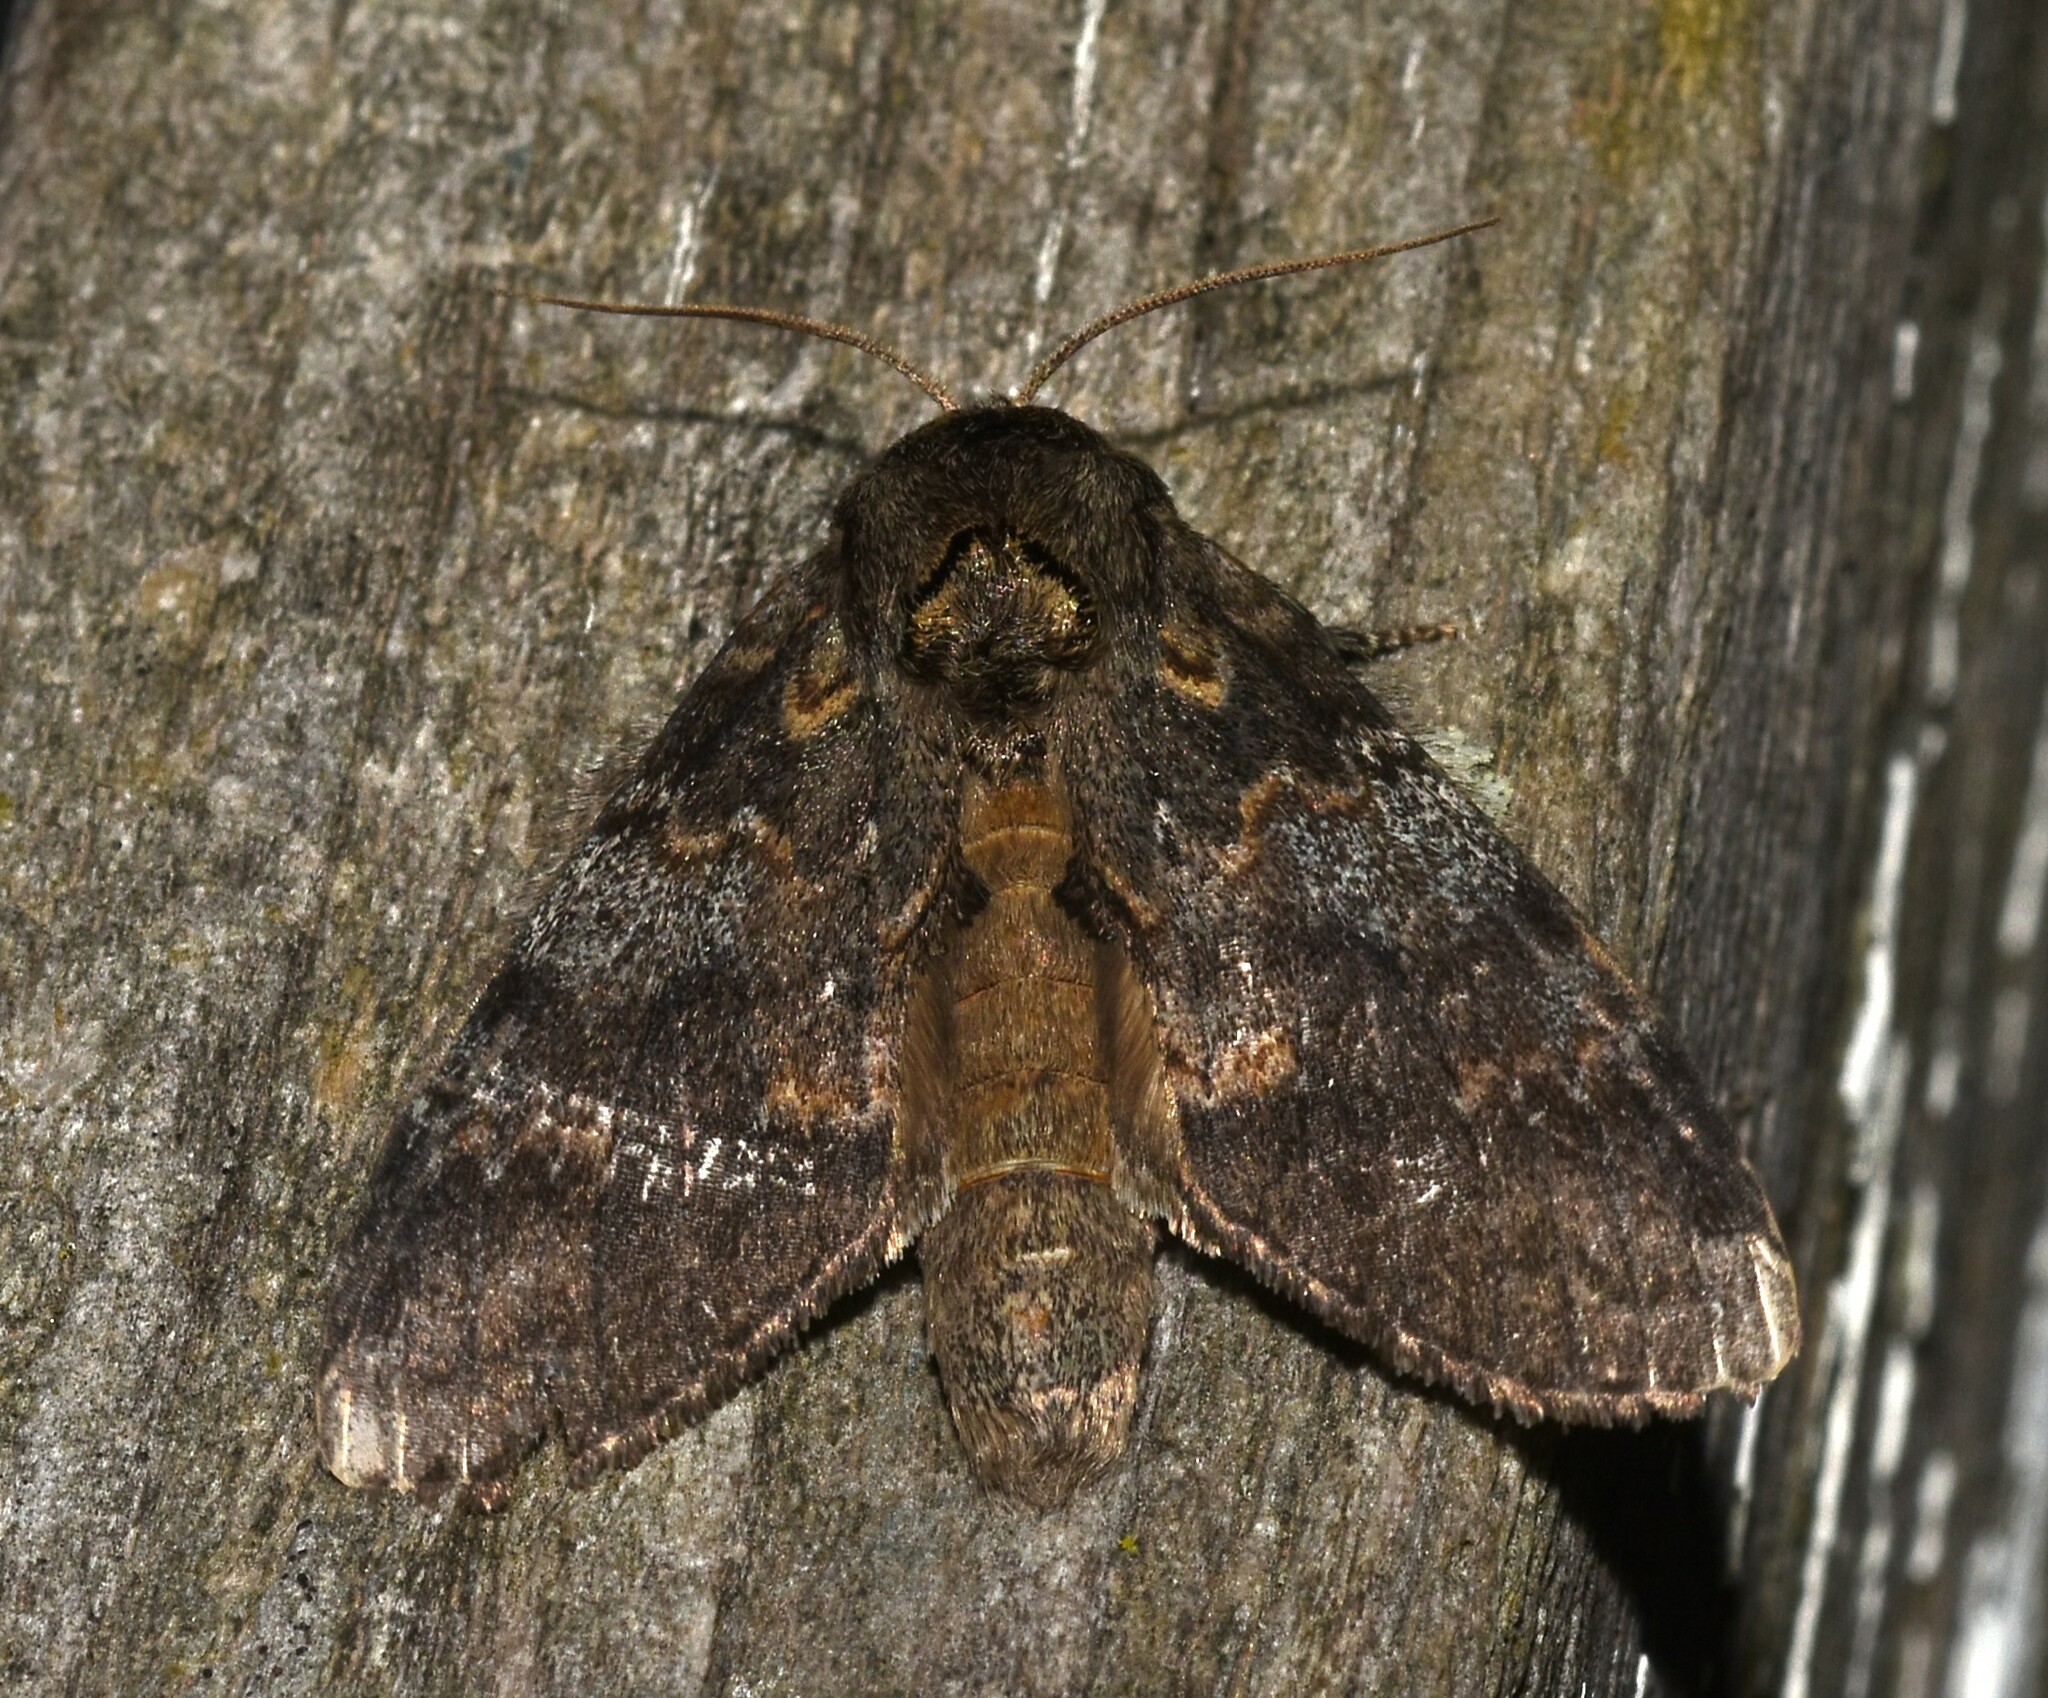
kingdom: Animalia
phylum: Arthropoda
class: Insecta
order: Lepidoptera
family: Notodontidae
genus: Peridea
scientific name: Peridea angulosa
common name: Angulose prominent
